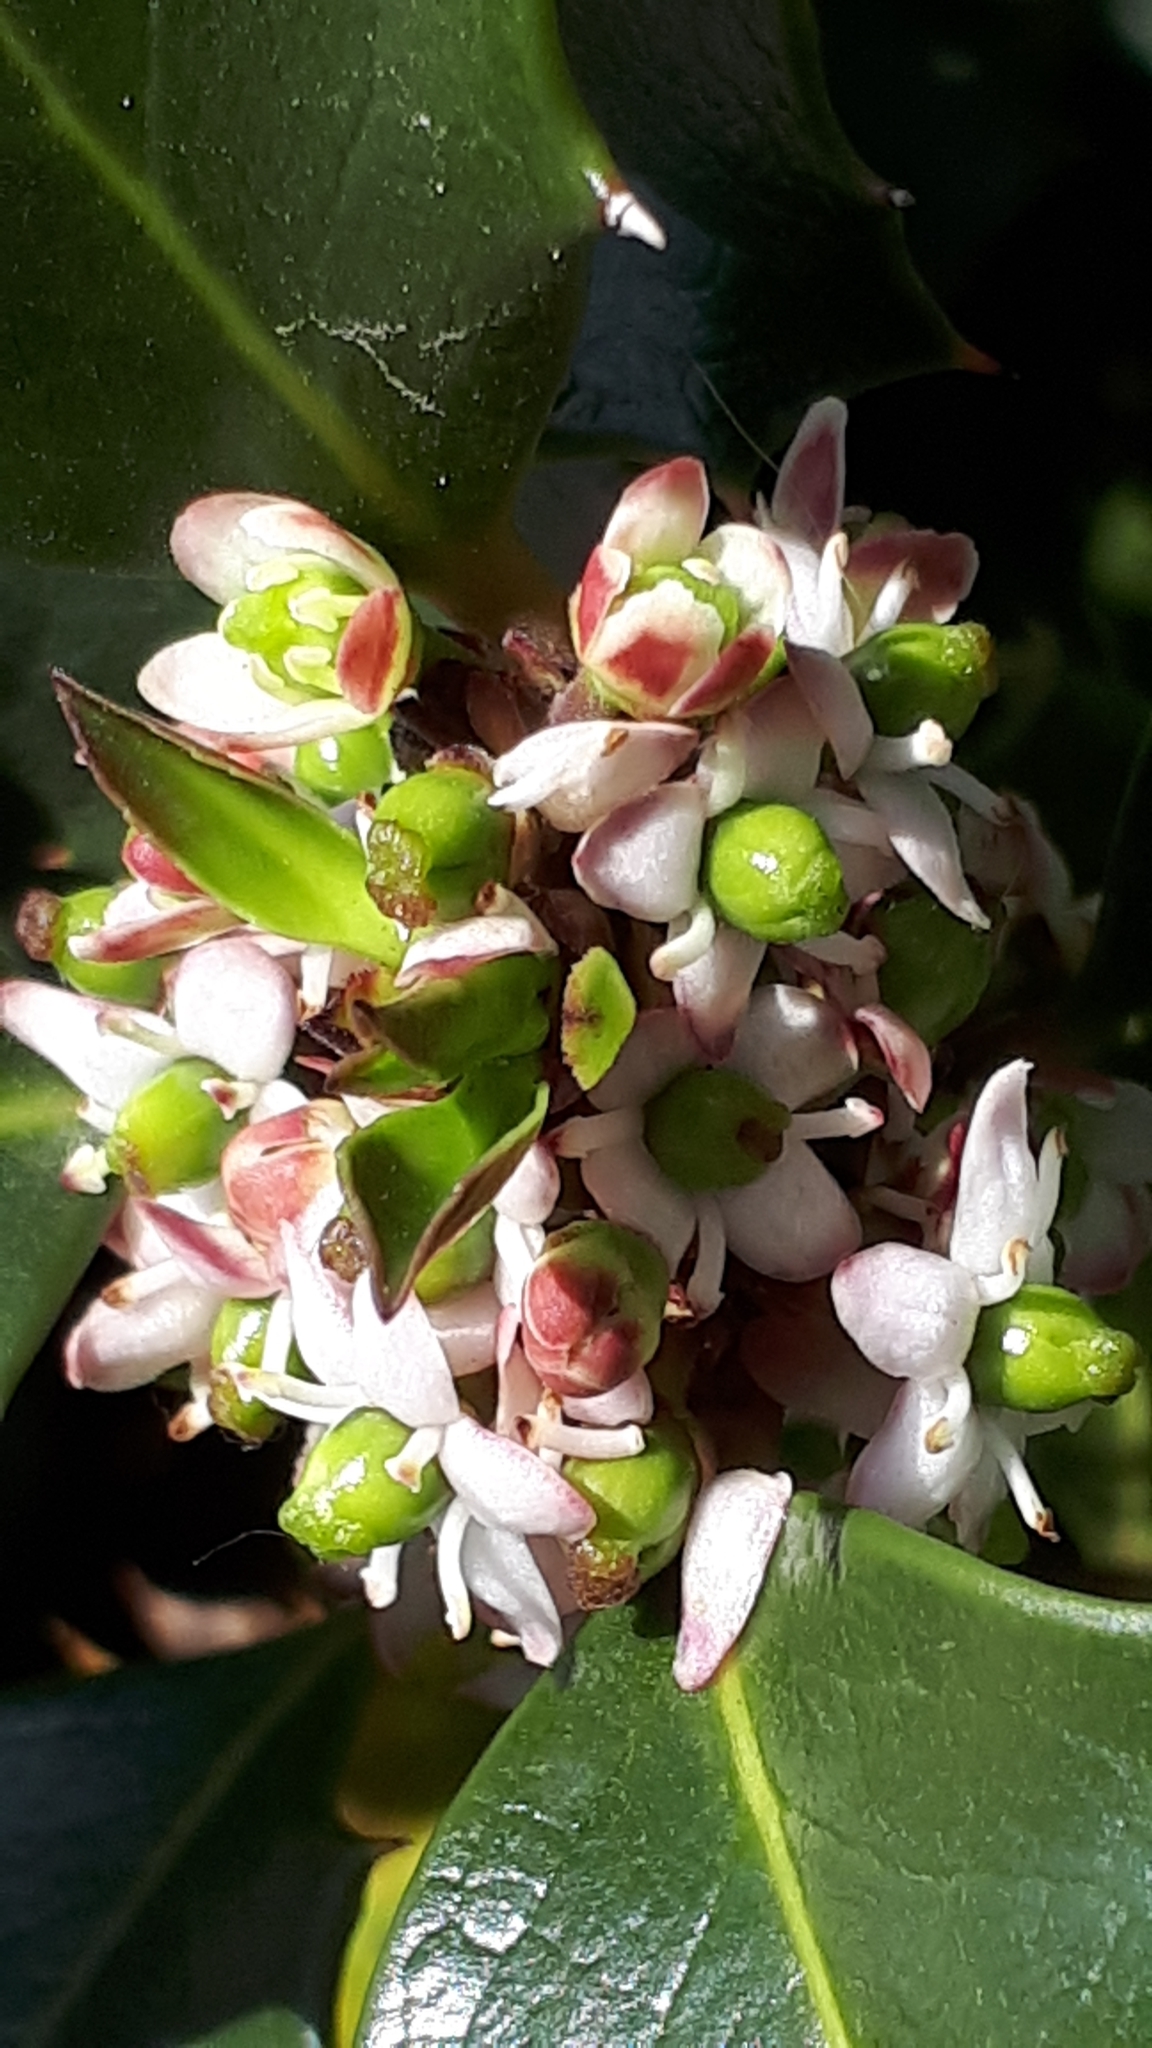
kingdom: Plantae
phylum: Tracheophyta
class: Magnoliopsida
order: Aquifoliales
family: Aquifoliaceae
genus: Ilex
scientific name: Ilex aquifolium
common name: English holly
